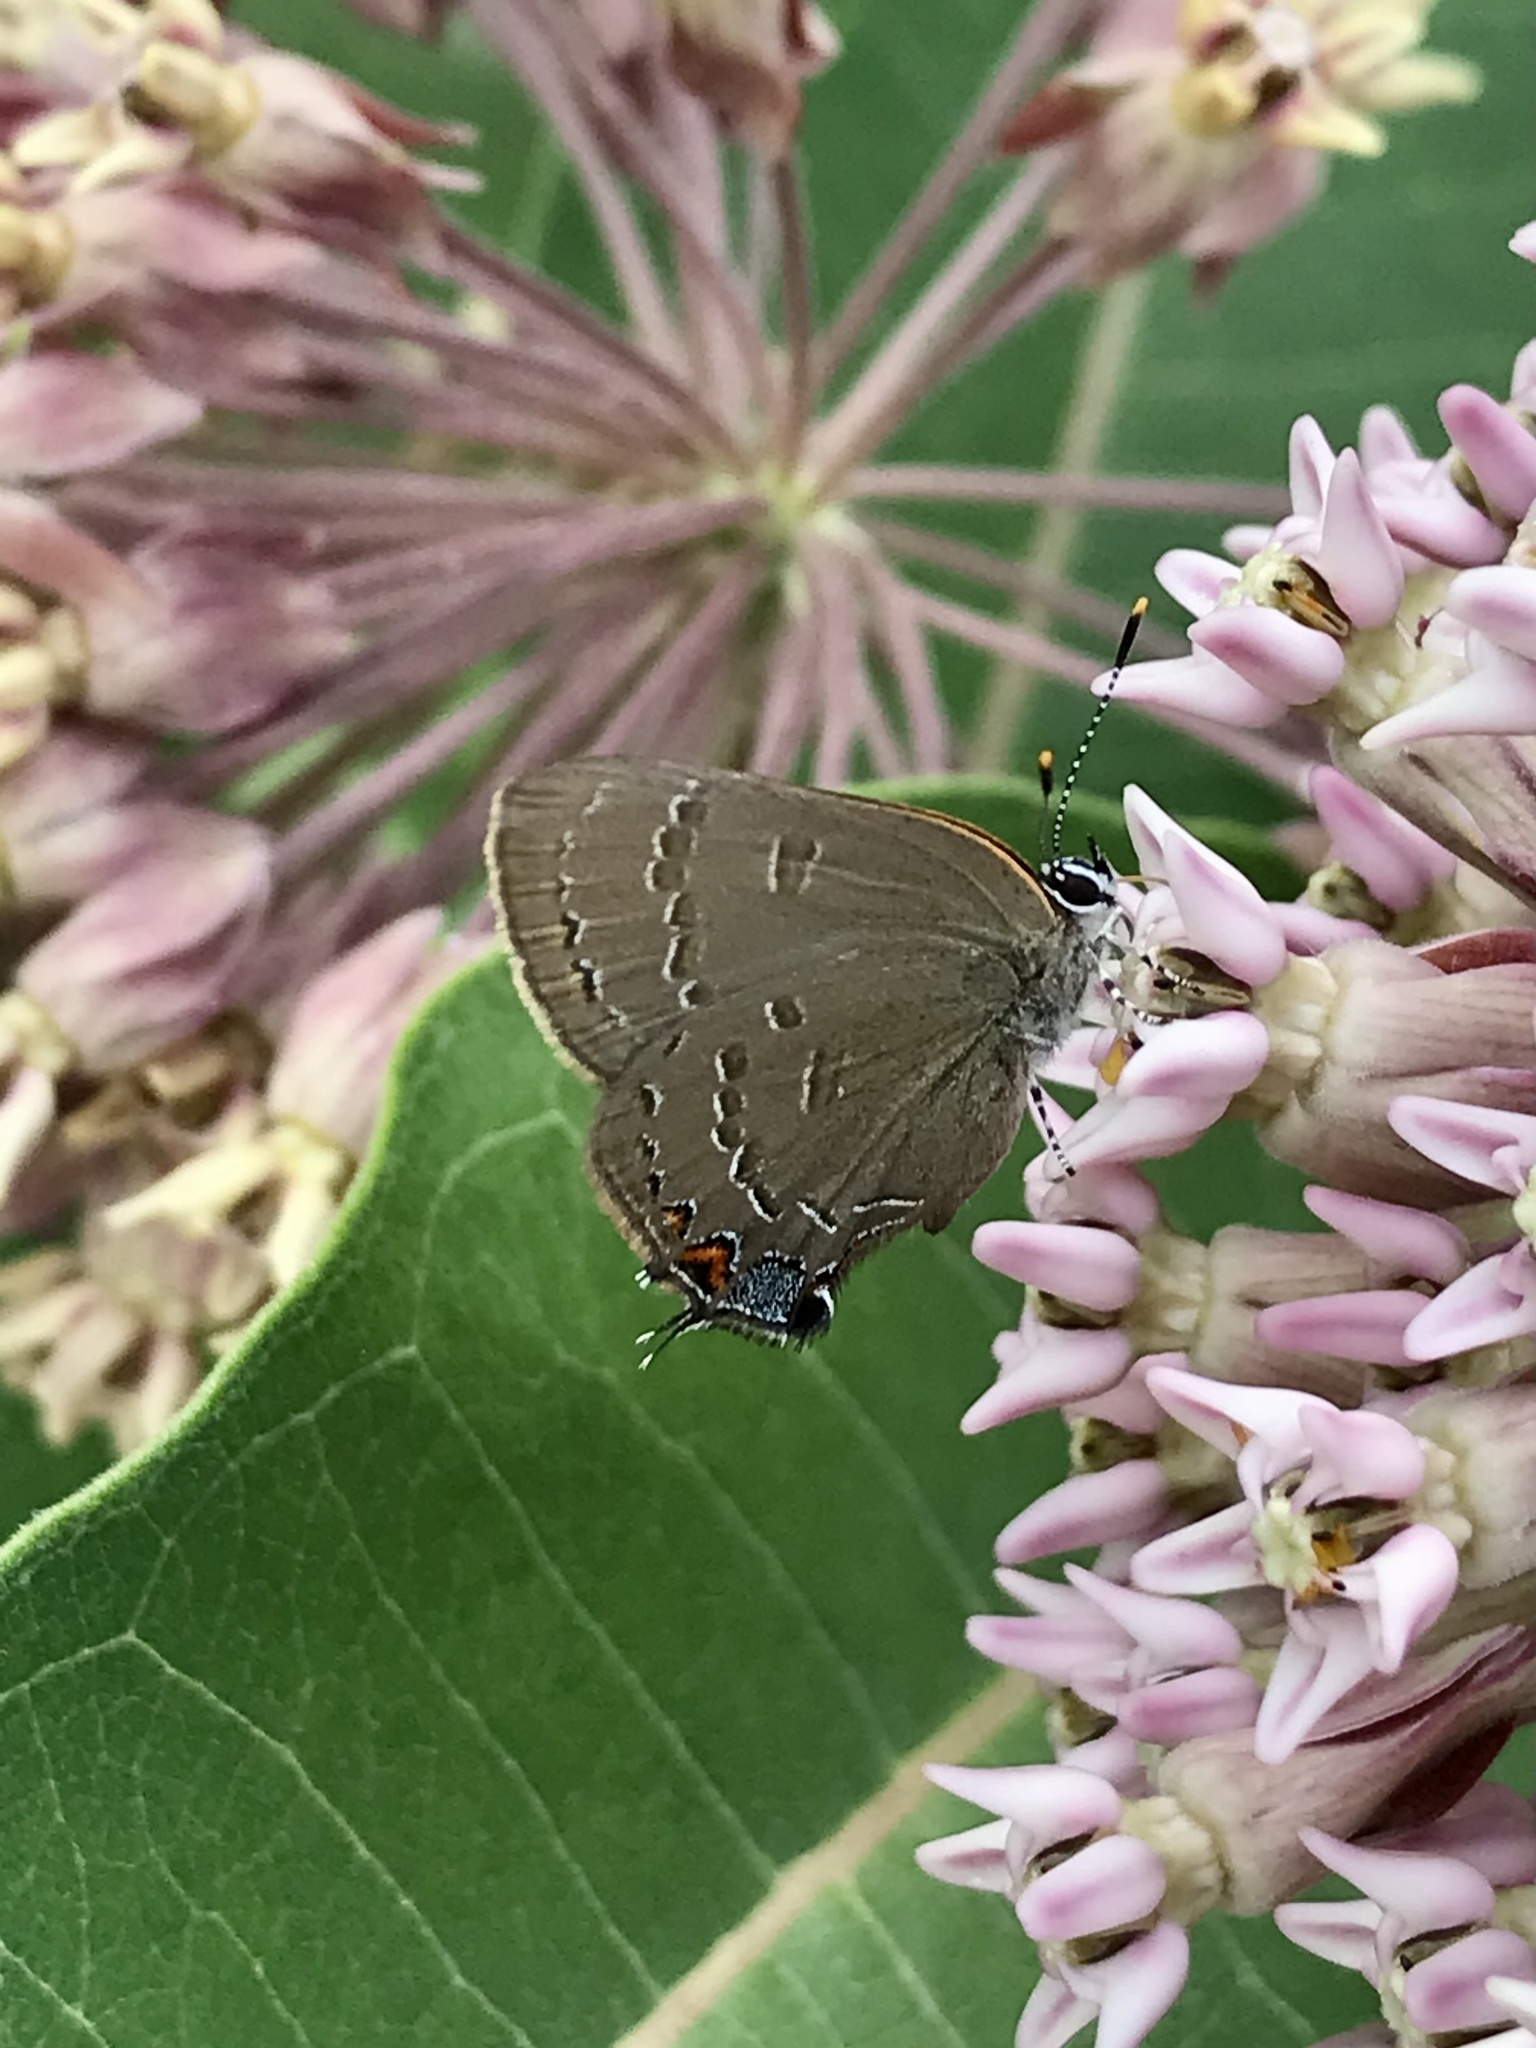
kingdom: Animalia
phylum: Arthropoda
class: Insecta
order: Lepidoptera
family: Lycaenidae
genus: Satyrium
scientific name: Satyrium calanus
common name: Banded hairstreak
